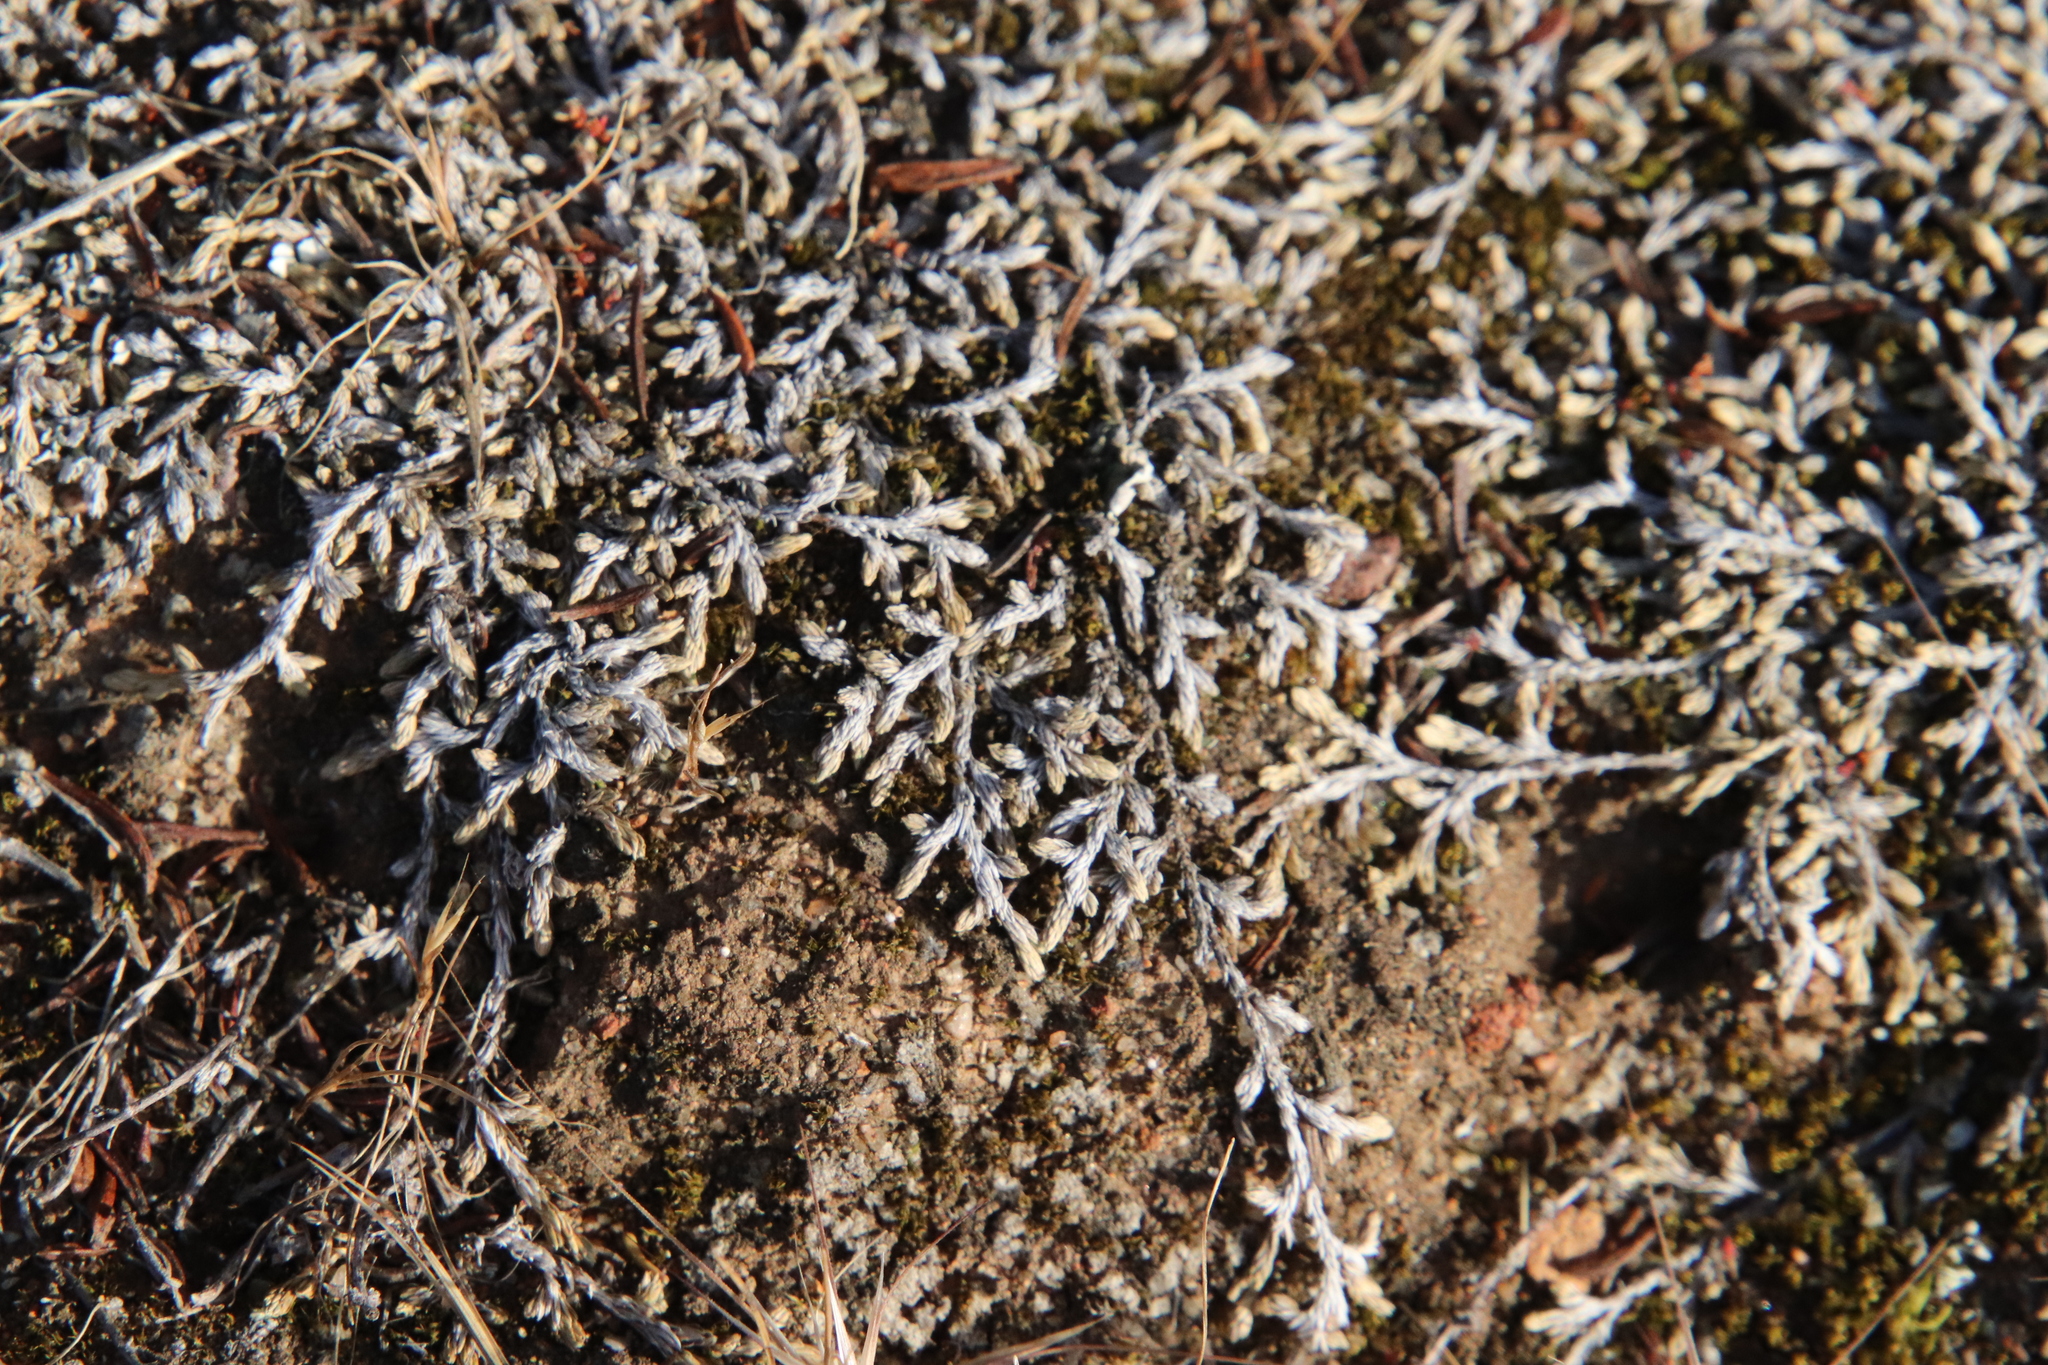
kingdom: Plantae
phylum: Tracheophyta
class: Lycopodiopsida
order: Selaginellales
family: Selaginellaceae
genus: Selaginella
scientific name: Selaginella cinerascens
